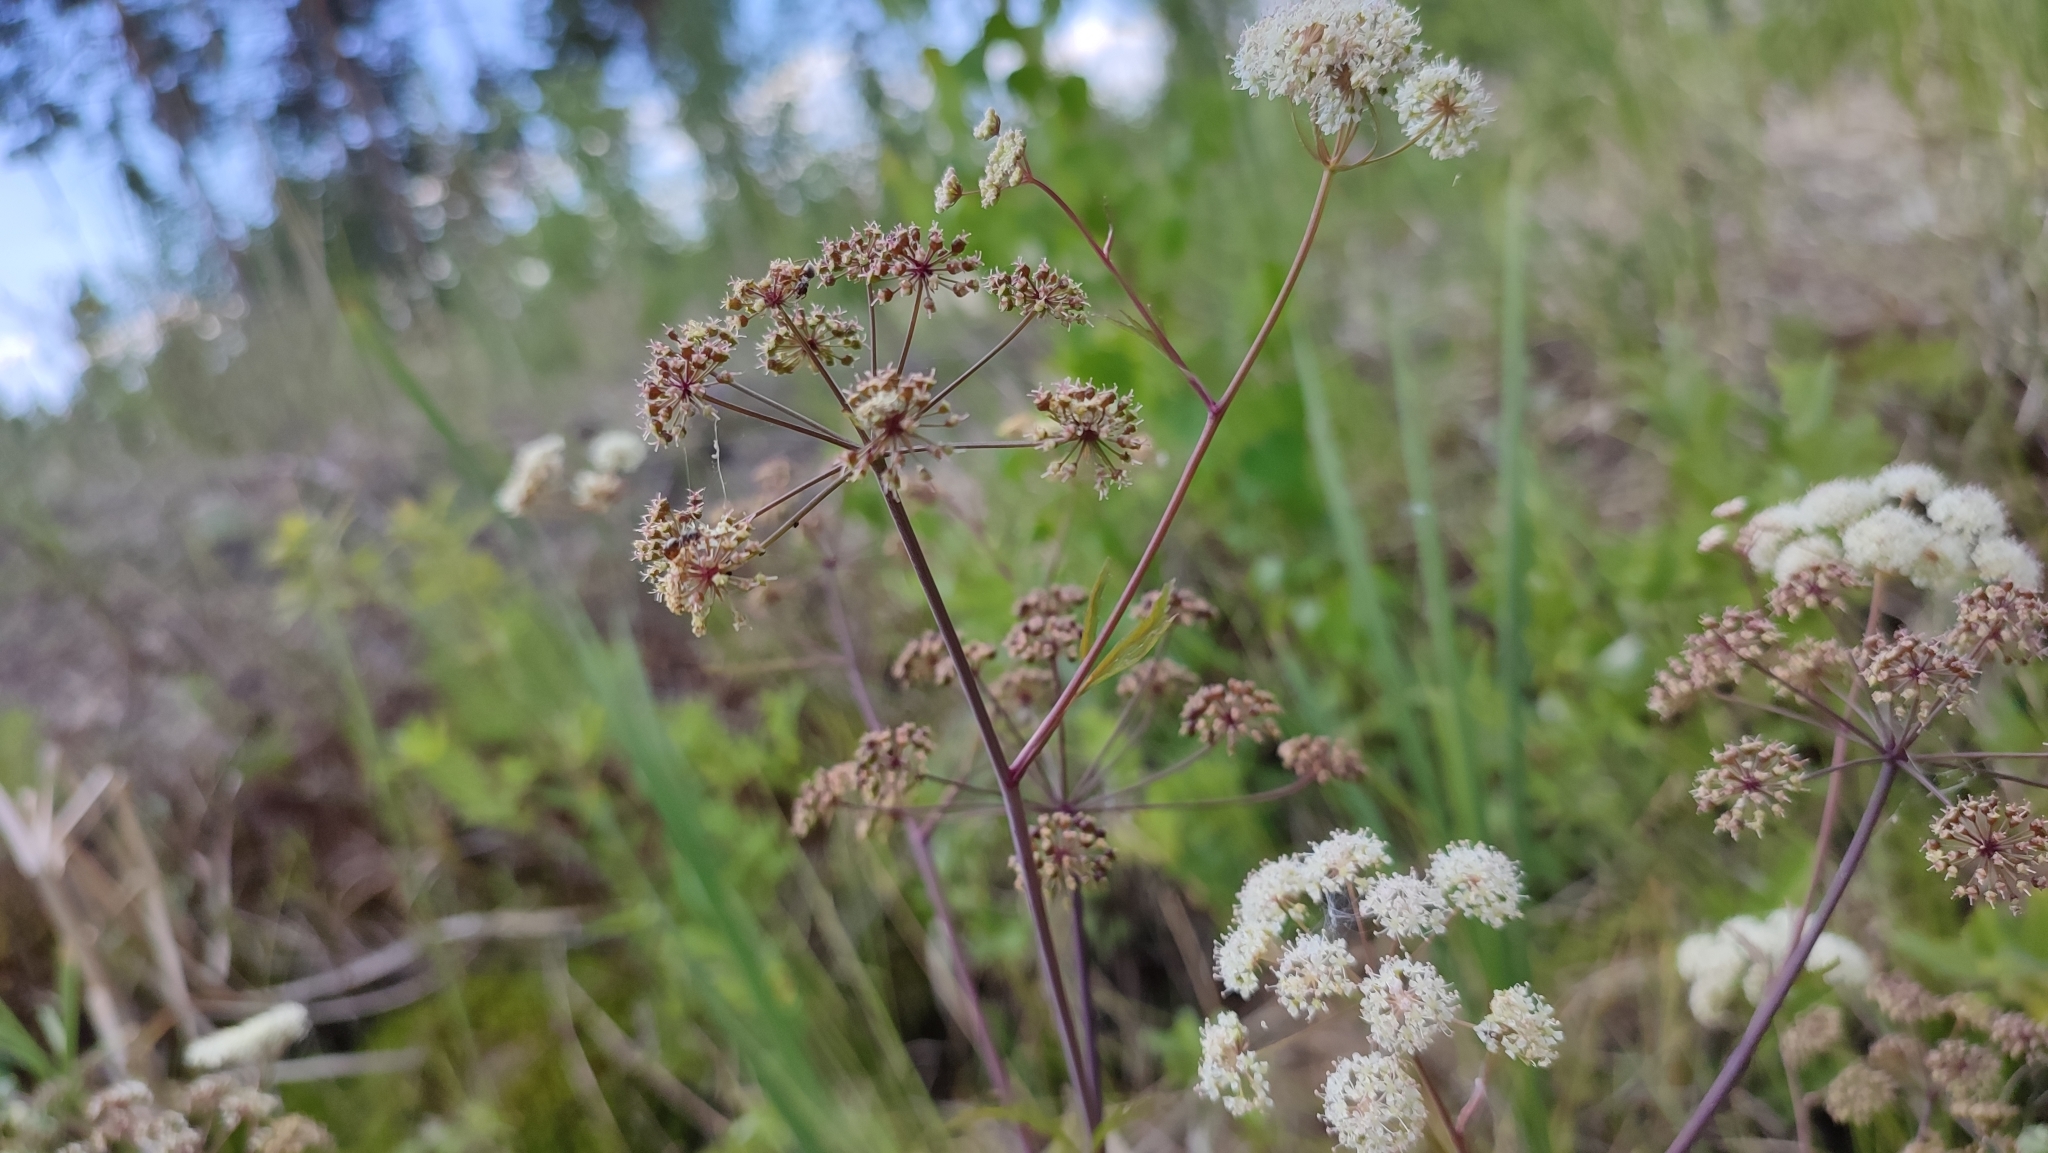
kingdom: Plantae
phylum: Tracheophyta
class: Magnoliopsida
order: Apiales
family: Apiaceae
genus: Cicuta
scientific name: Cicuta virosa
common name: Cowbane
